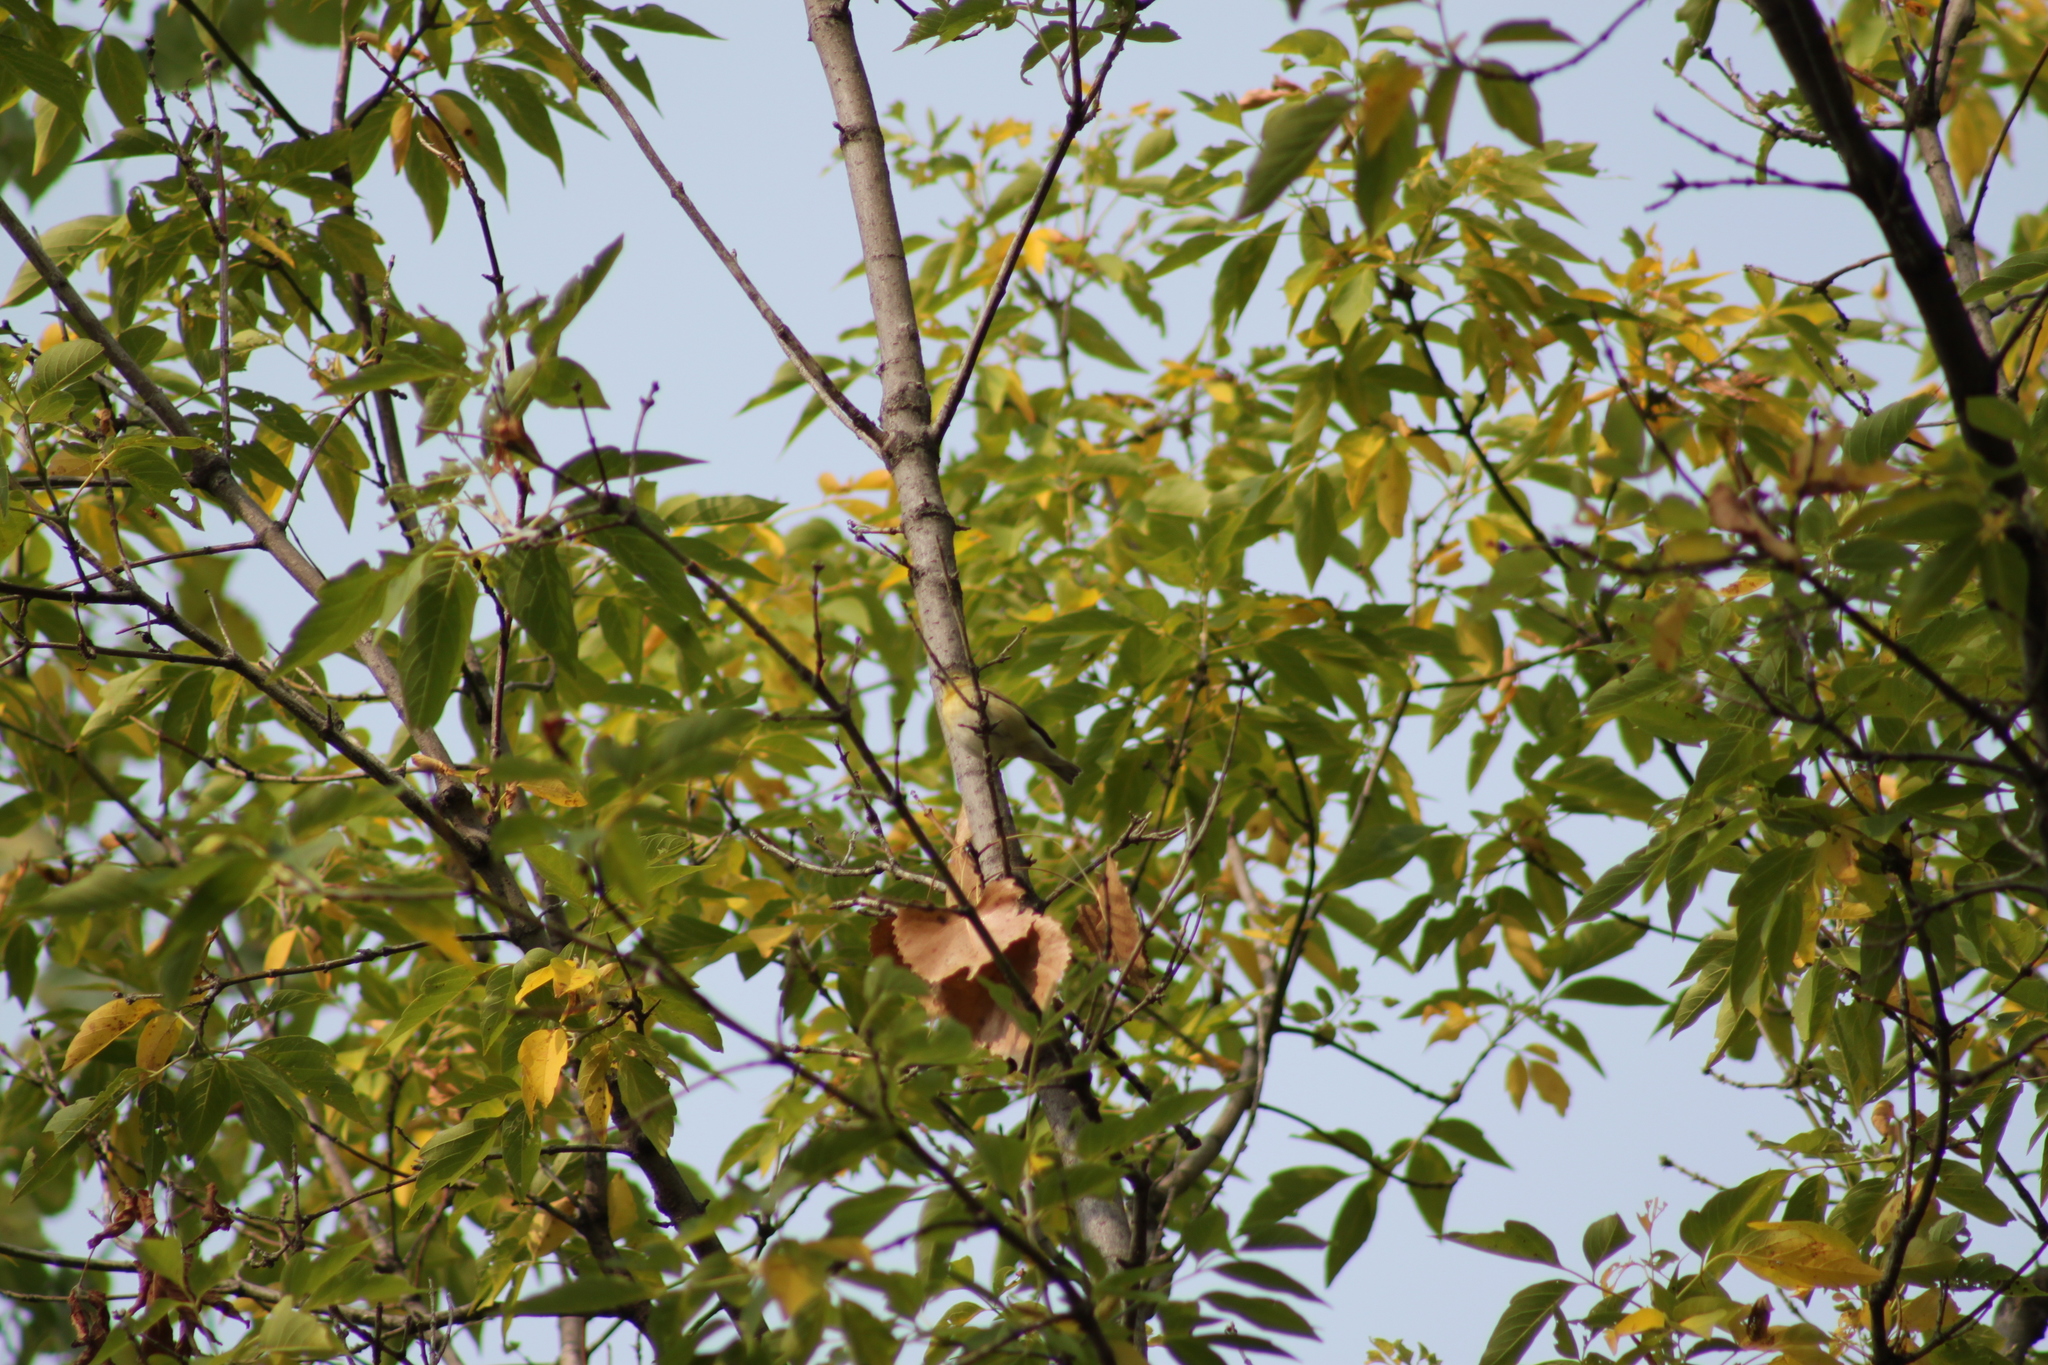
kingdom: Animalia
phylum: Chordata
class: Aves
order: Passeriformes
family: Parulidae
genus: Leiothlypis
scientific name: Leiothlypis peregrina
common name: Tennessee warbler
